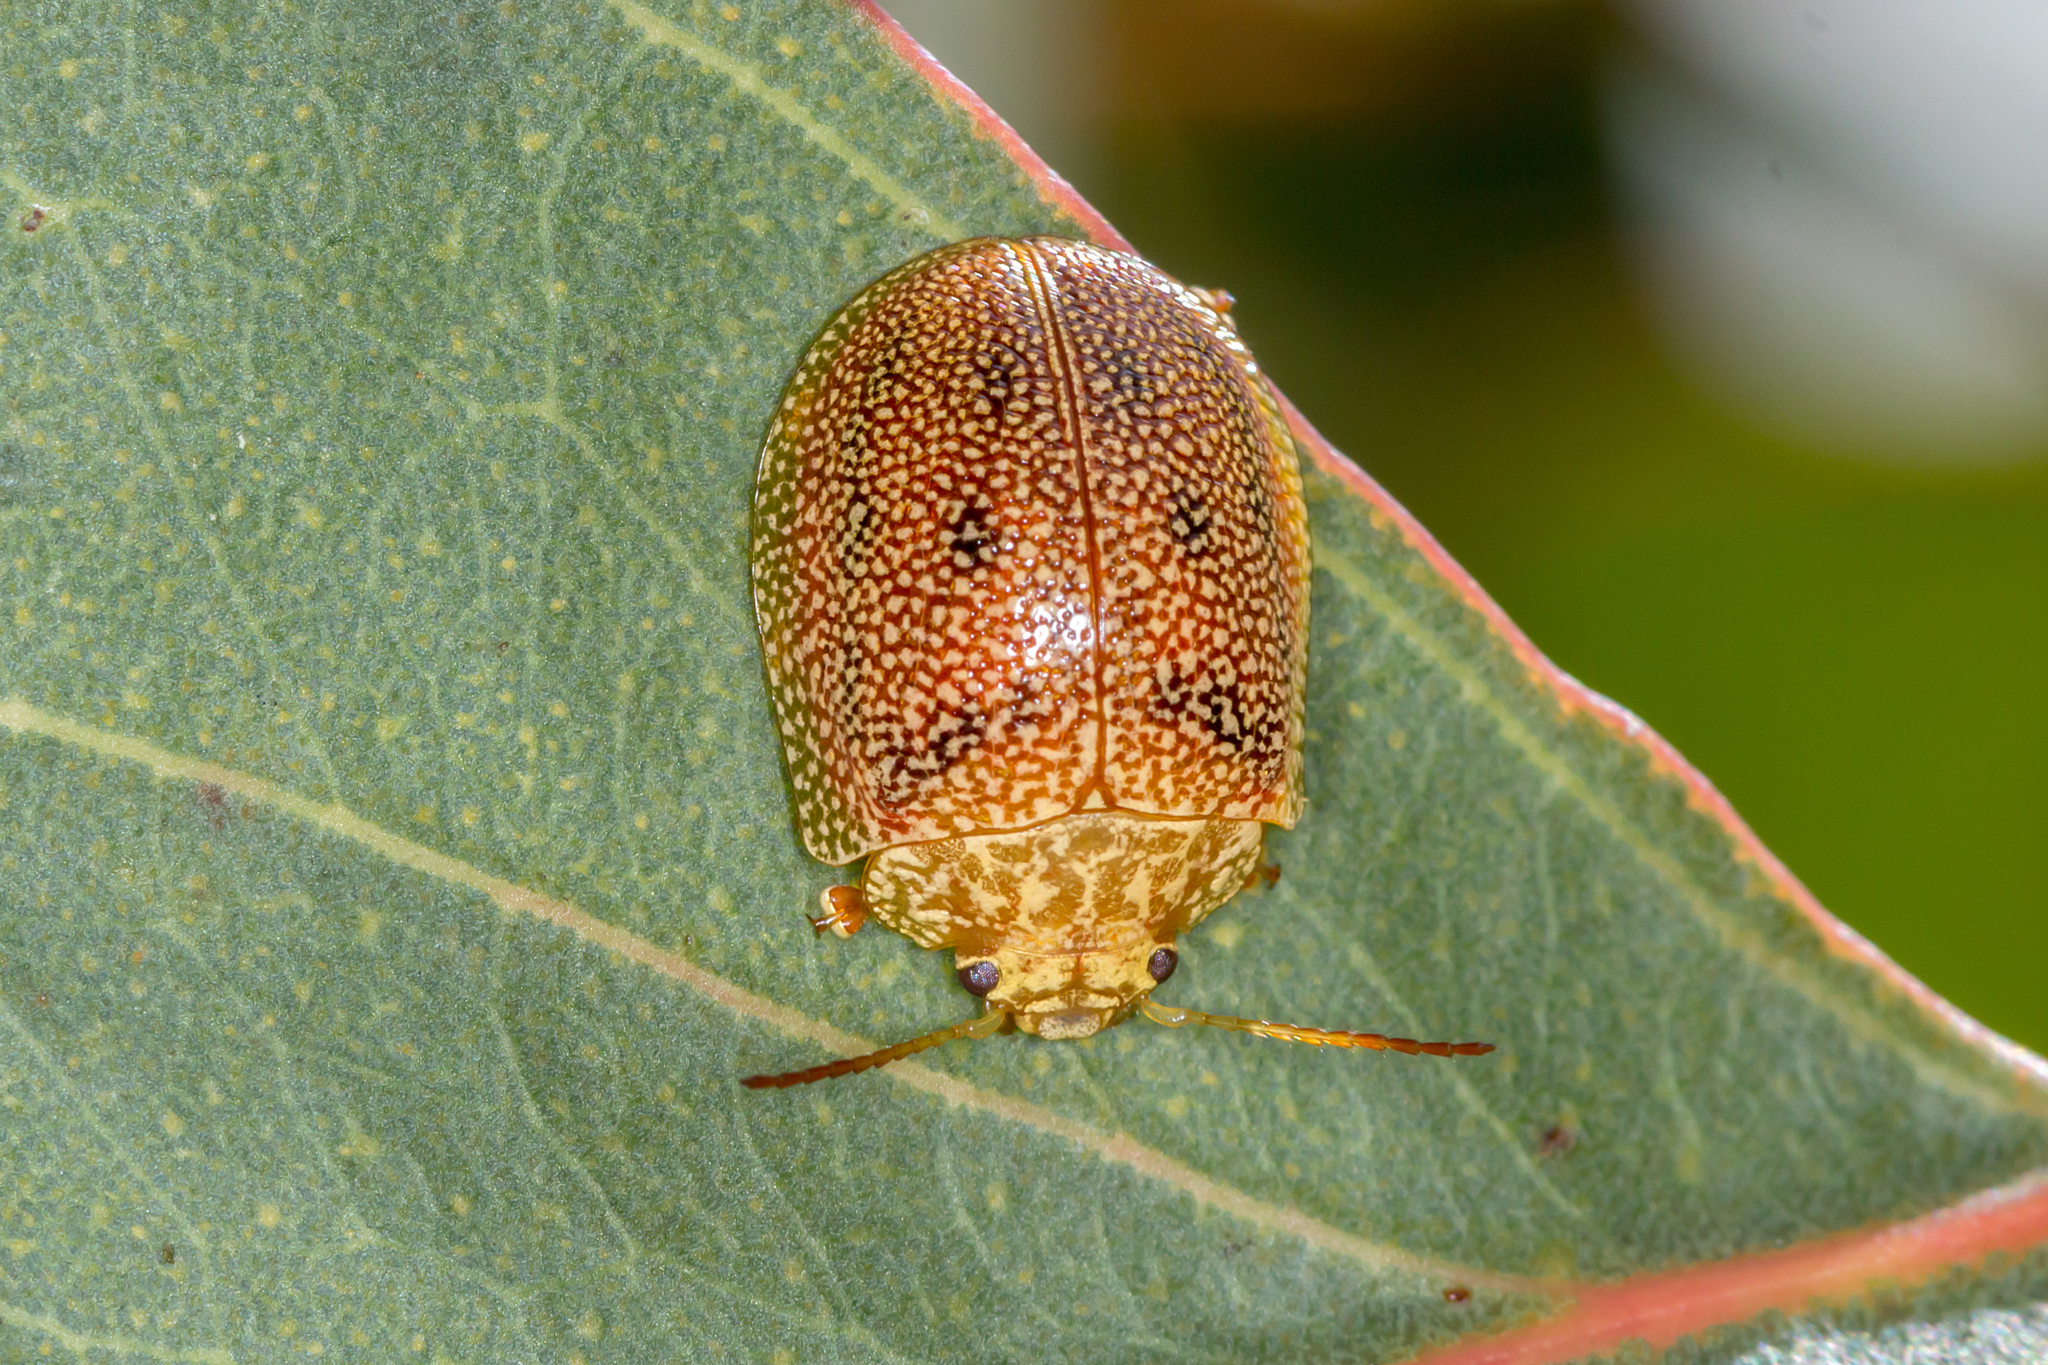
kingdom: Animalia
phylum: Arthropoda
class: Insecta
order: Coleoptera
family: Chrysomelidae
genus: Paropsis
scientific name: Paropsis
